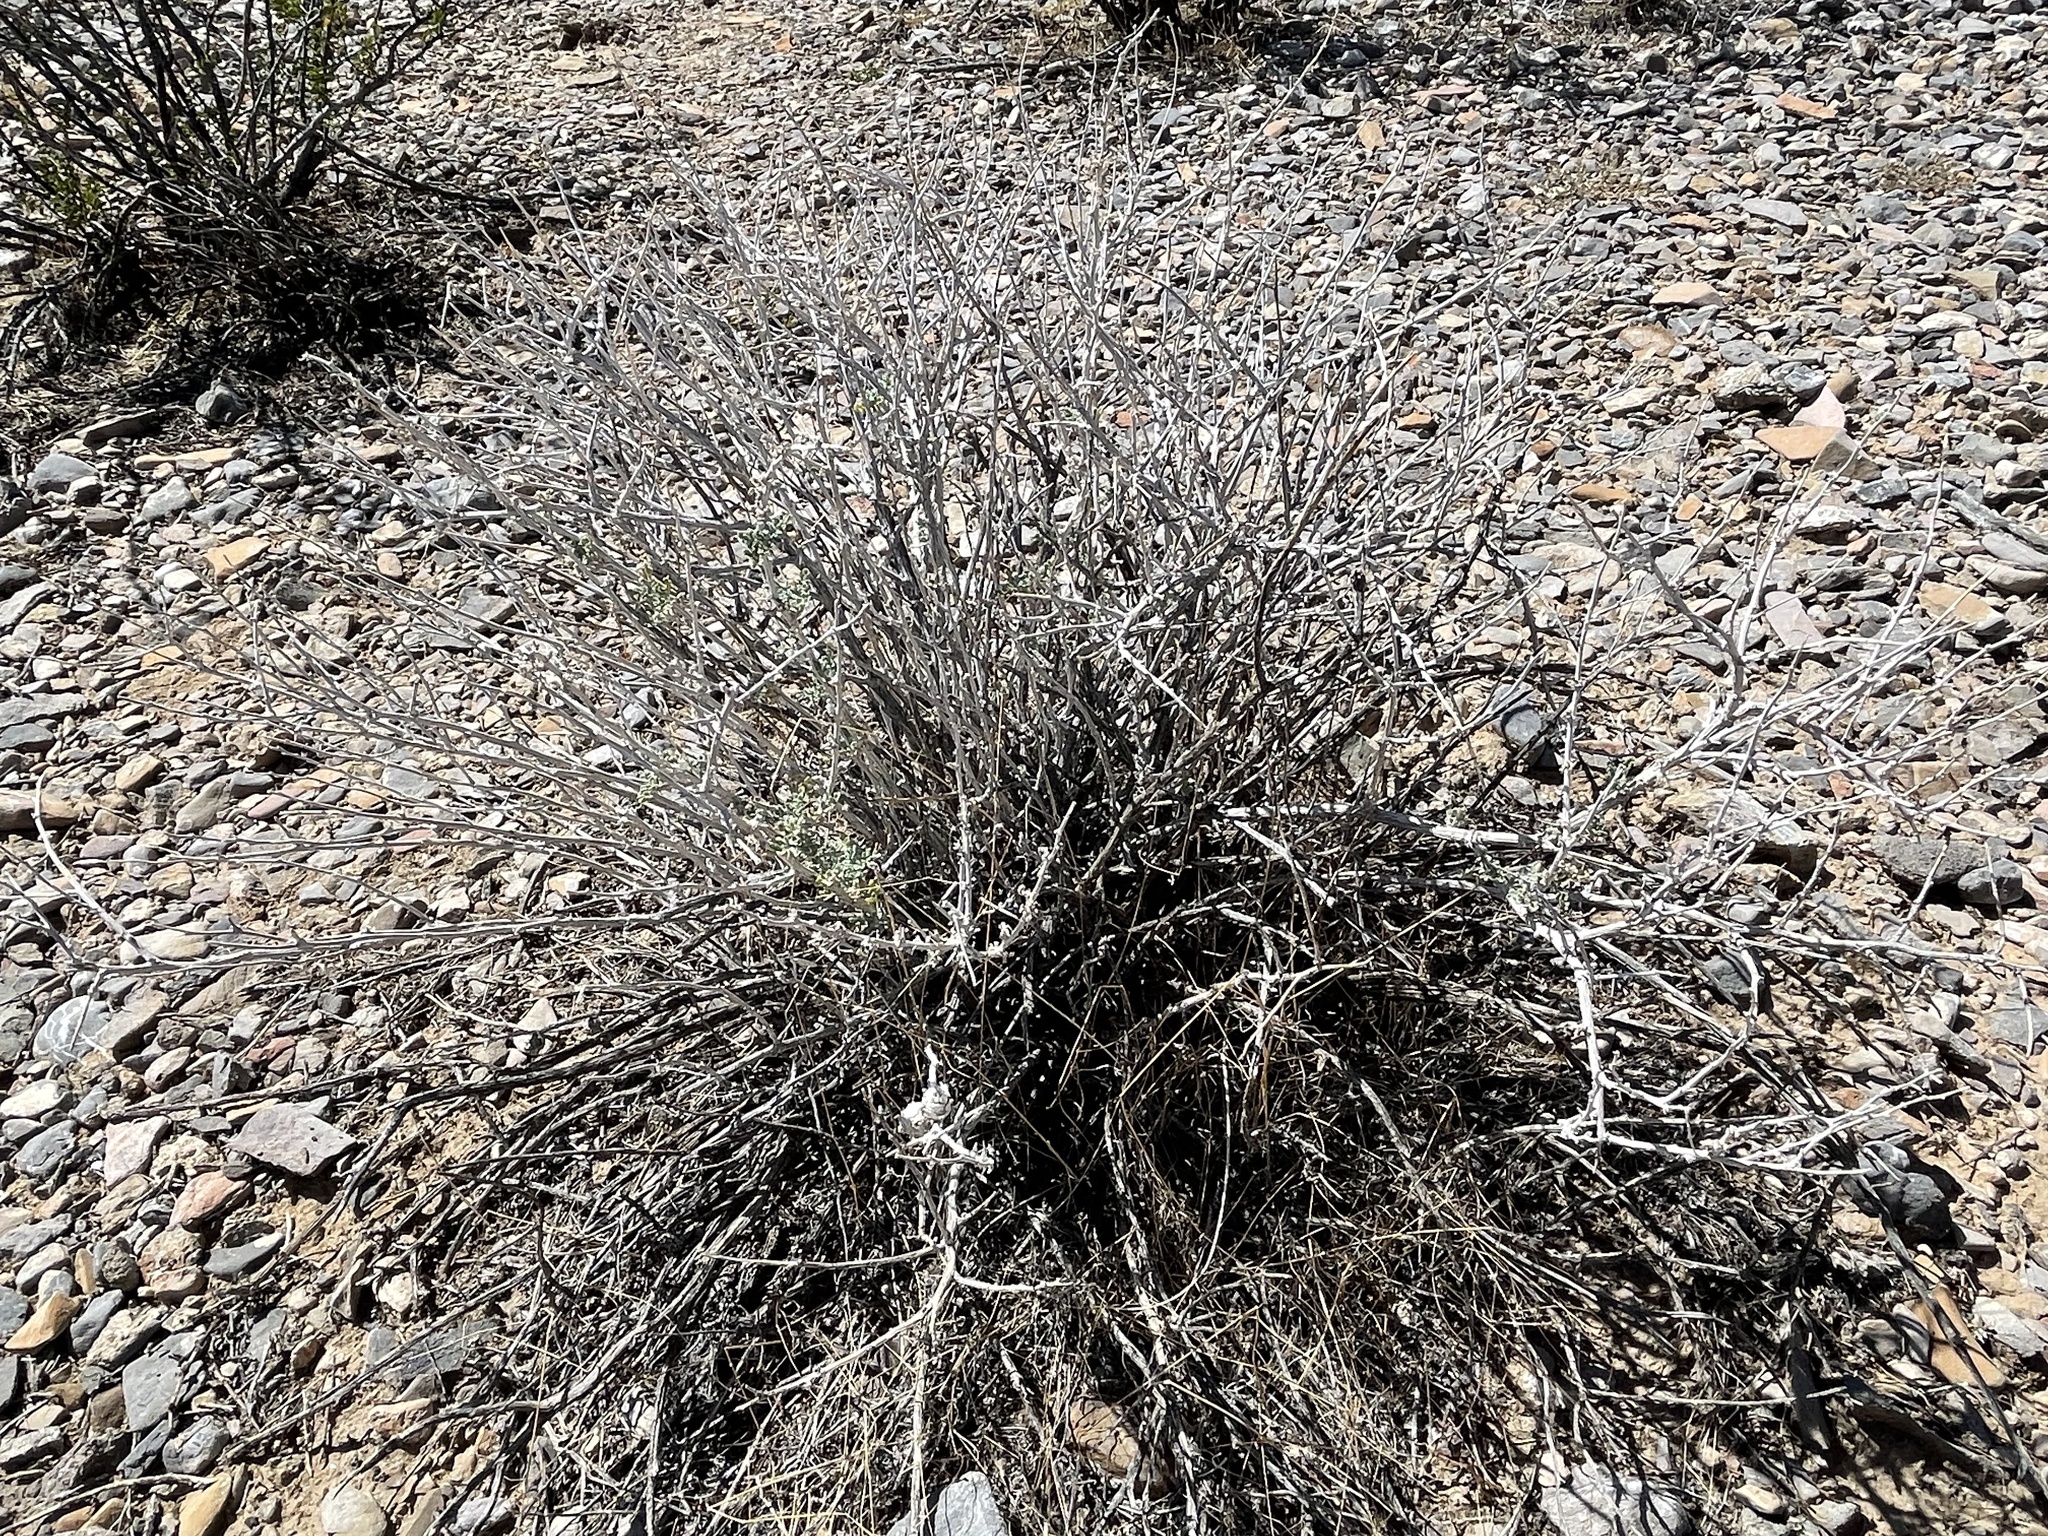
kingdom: Plantae
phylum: Tracheophyta
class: Magnoliopsida
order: Asterales
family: Asteraceae
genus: Ambrosia
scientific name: Ambrosia dumosa
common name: Bur-sage
